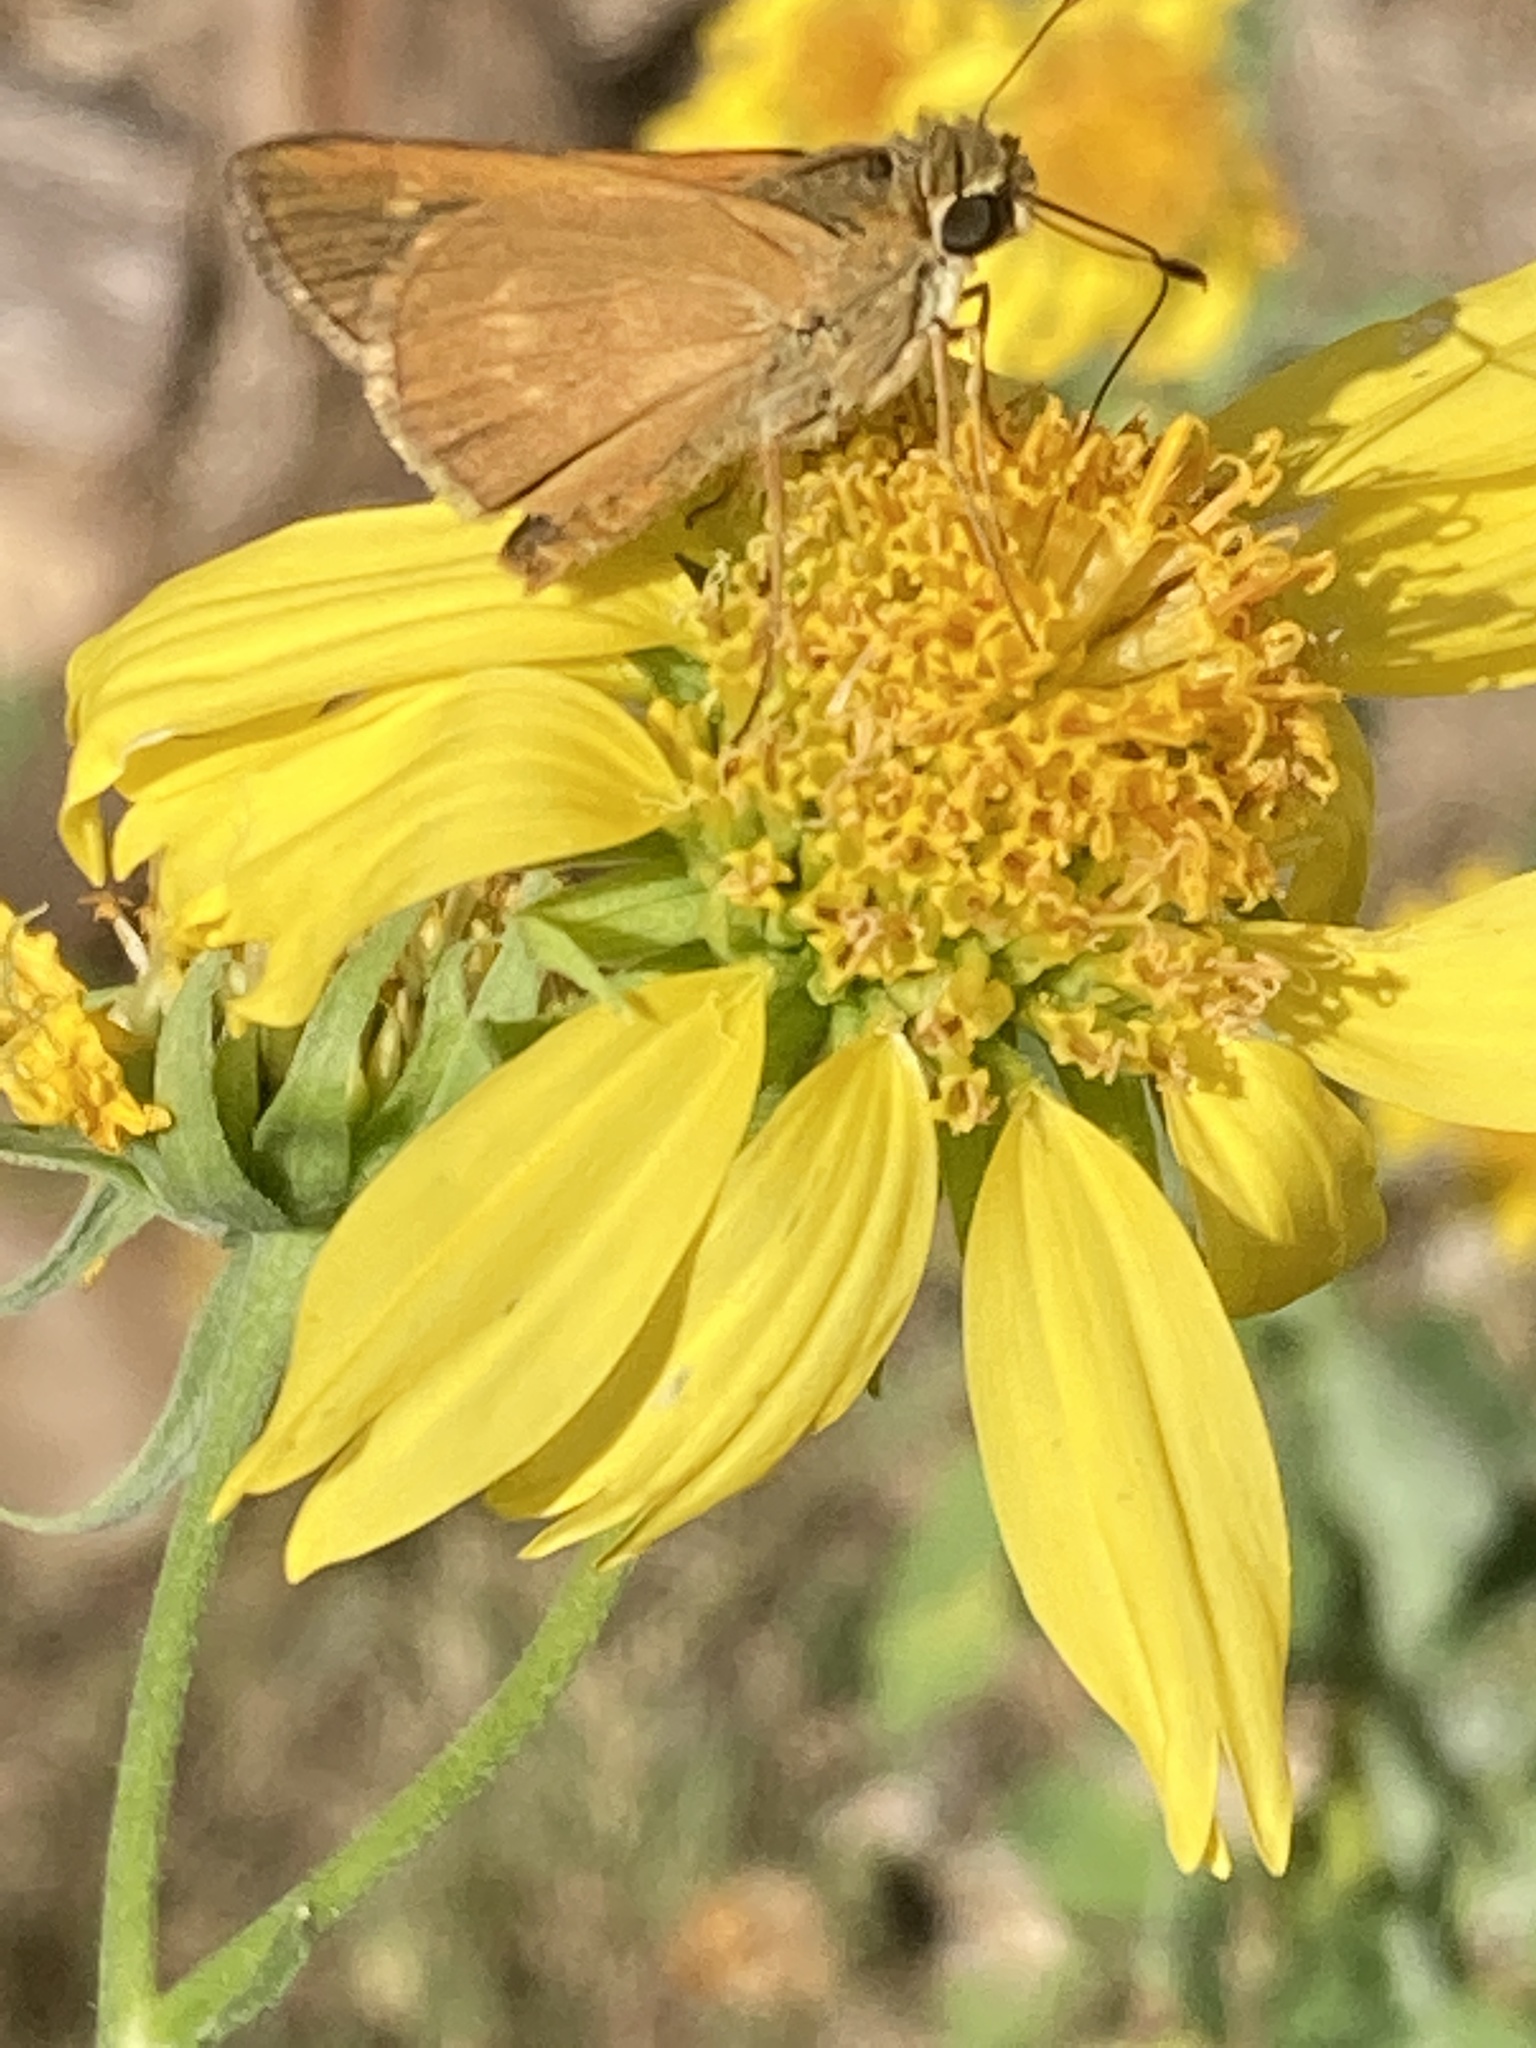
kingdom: Animalia
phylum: Arthropoda
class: Insecta
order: Lepidoptera
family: Hesperiidae
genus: Polites
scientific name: Polites otho
